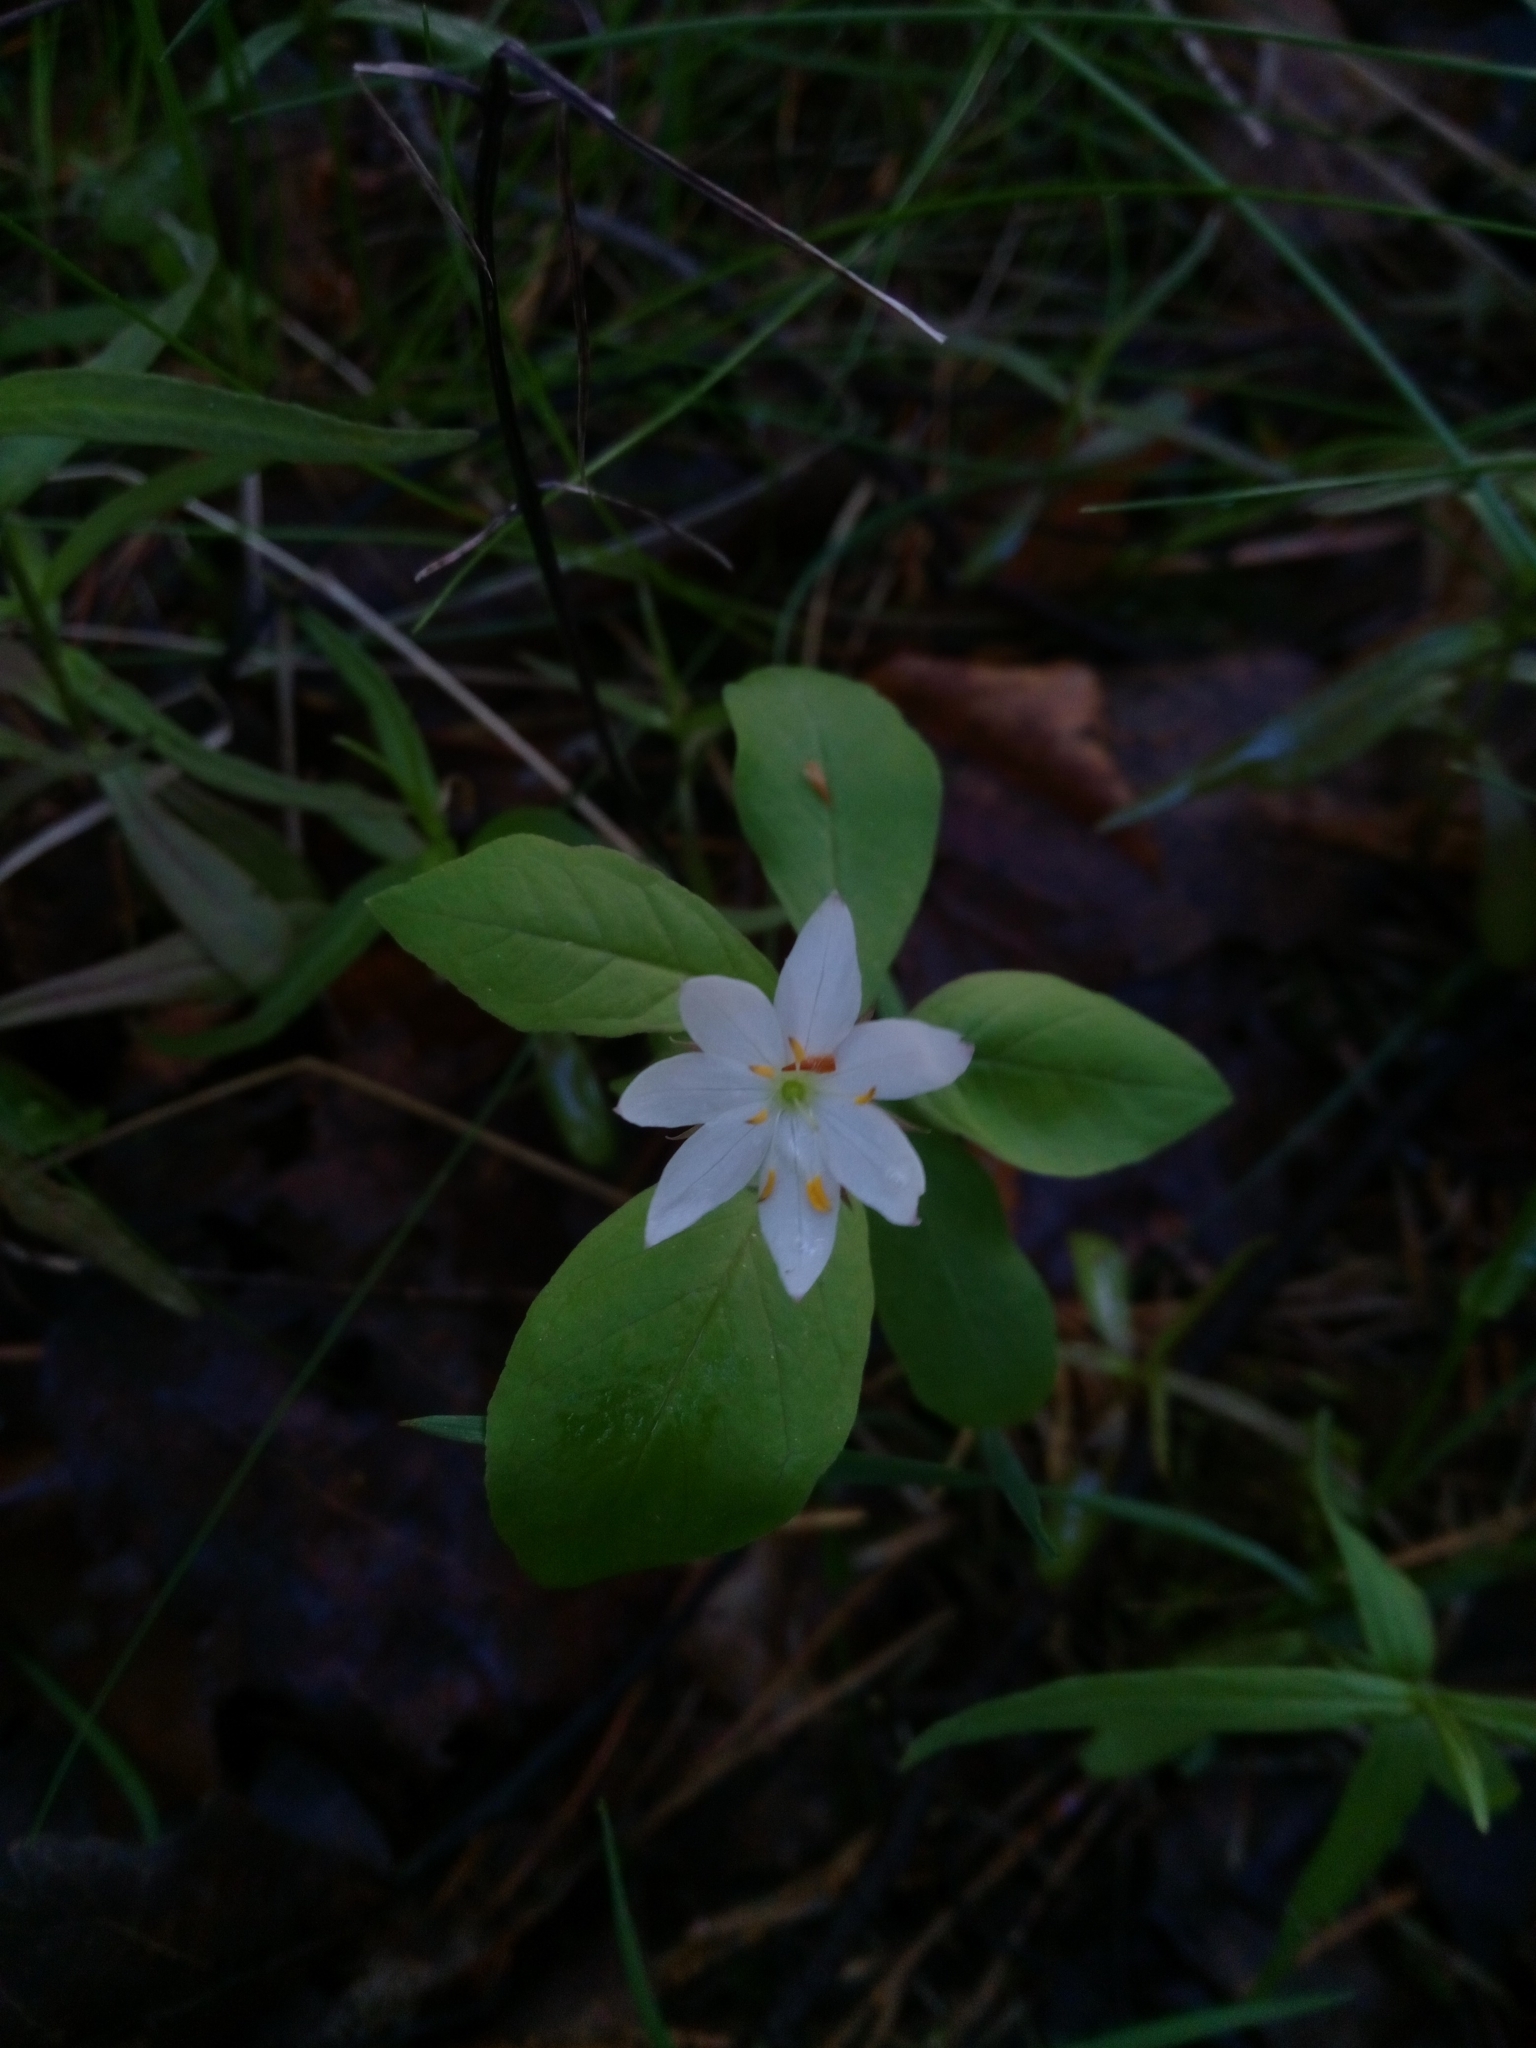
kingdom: Plantae
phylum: Tracheophyta
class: Magnoliopsida
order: Ericales
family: Primulaceae
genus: Lysimachia
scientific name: Lysimachia europaea
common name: Arctic starflower
